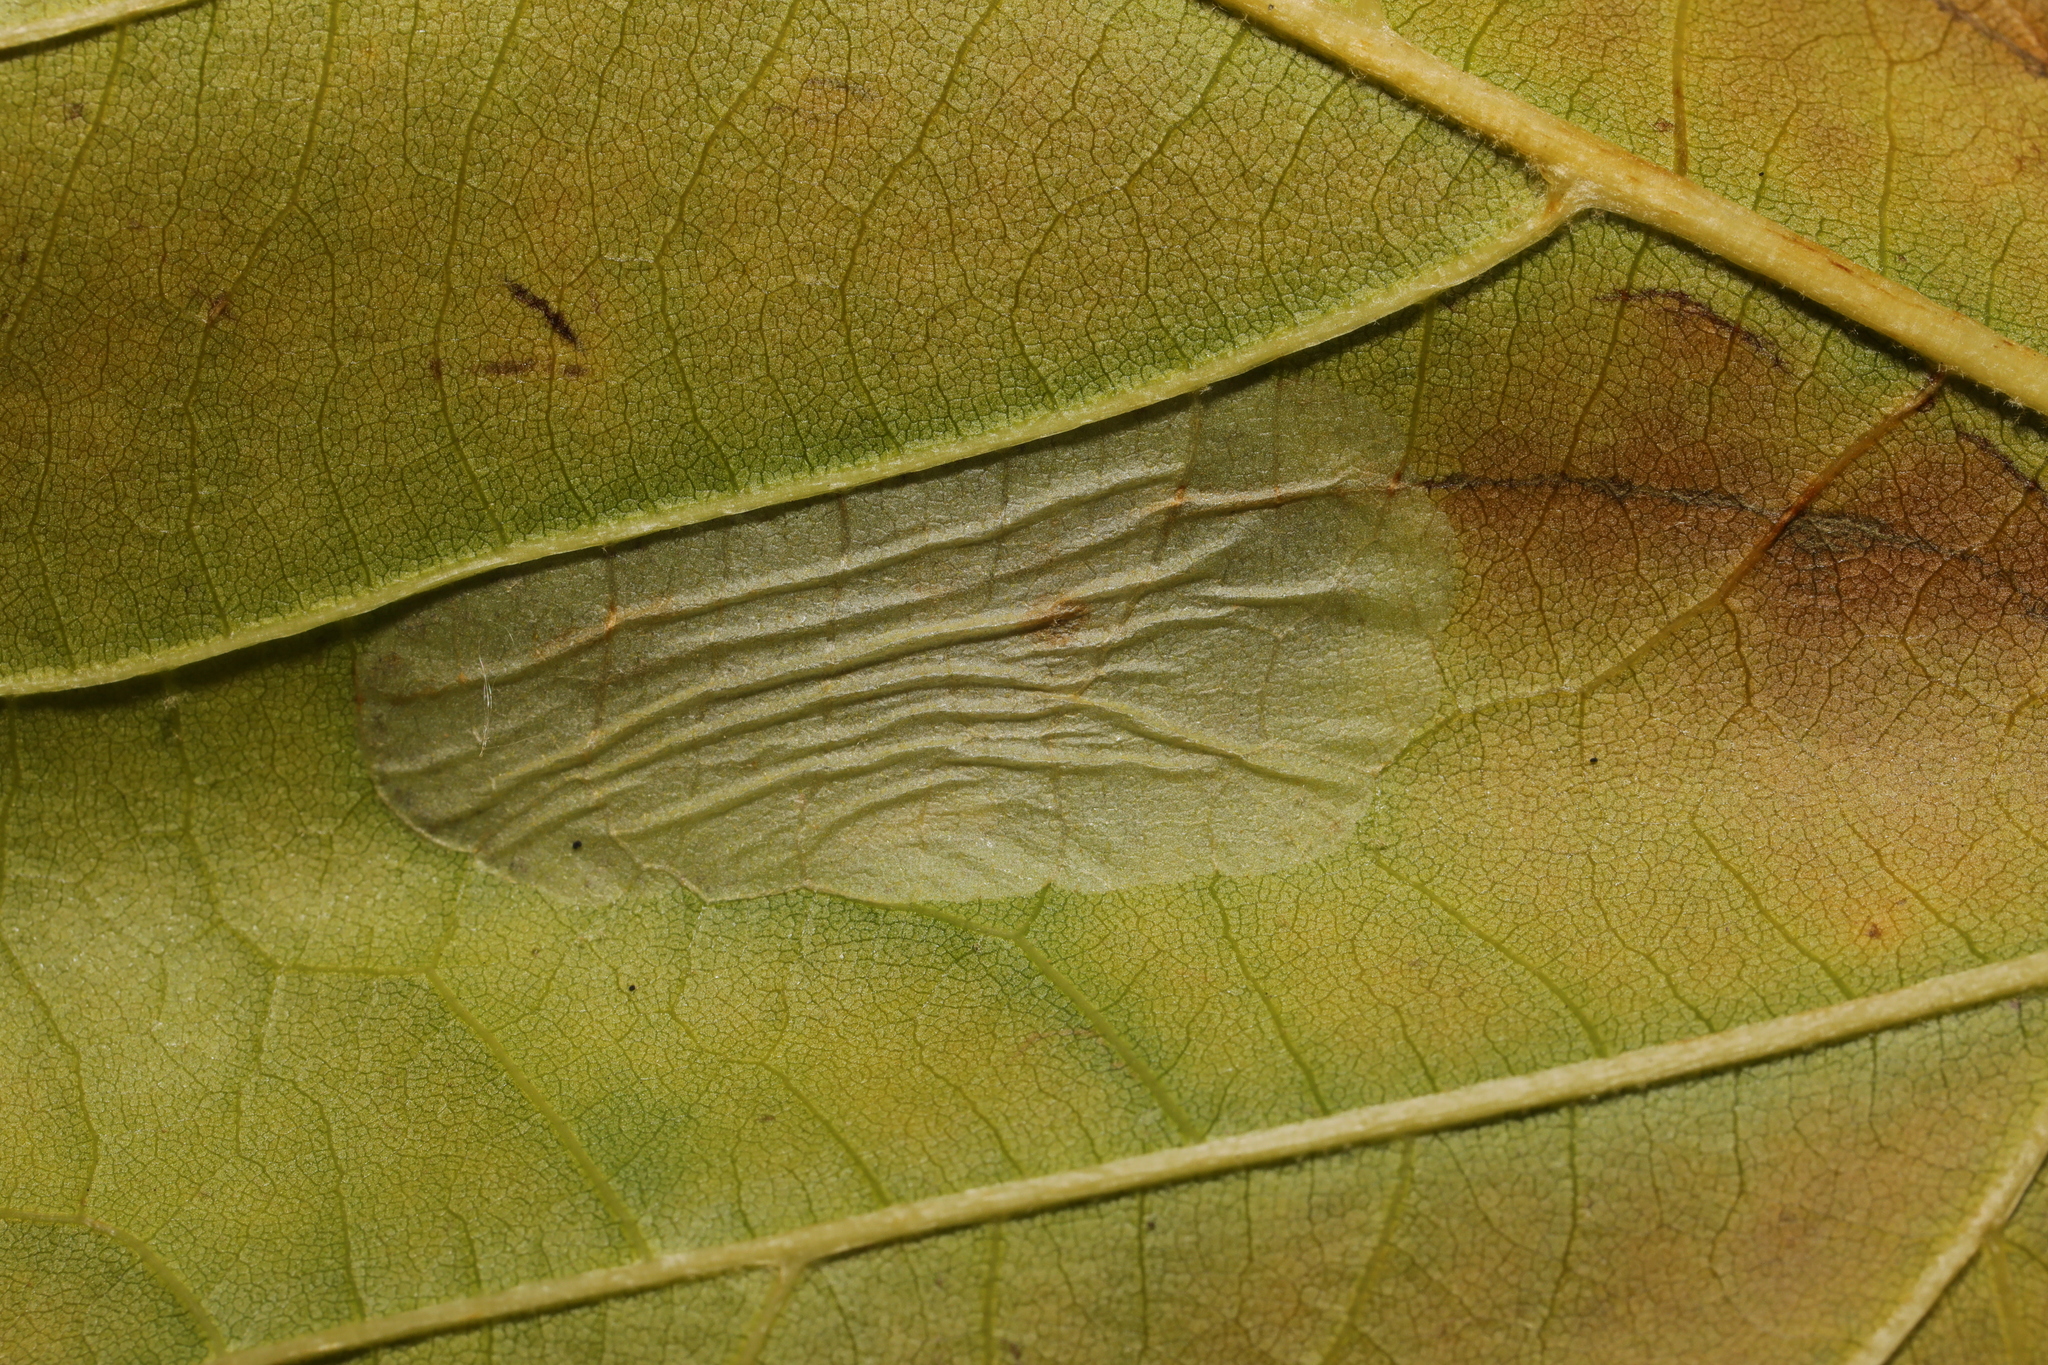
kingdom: Animalia
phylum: Arthropoda
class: Insecta
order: Lepidoptera
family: Gracillariidae
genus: Phyllonorycter
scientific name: Phyllonorycter platani
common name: London midget
